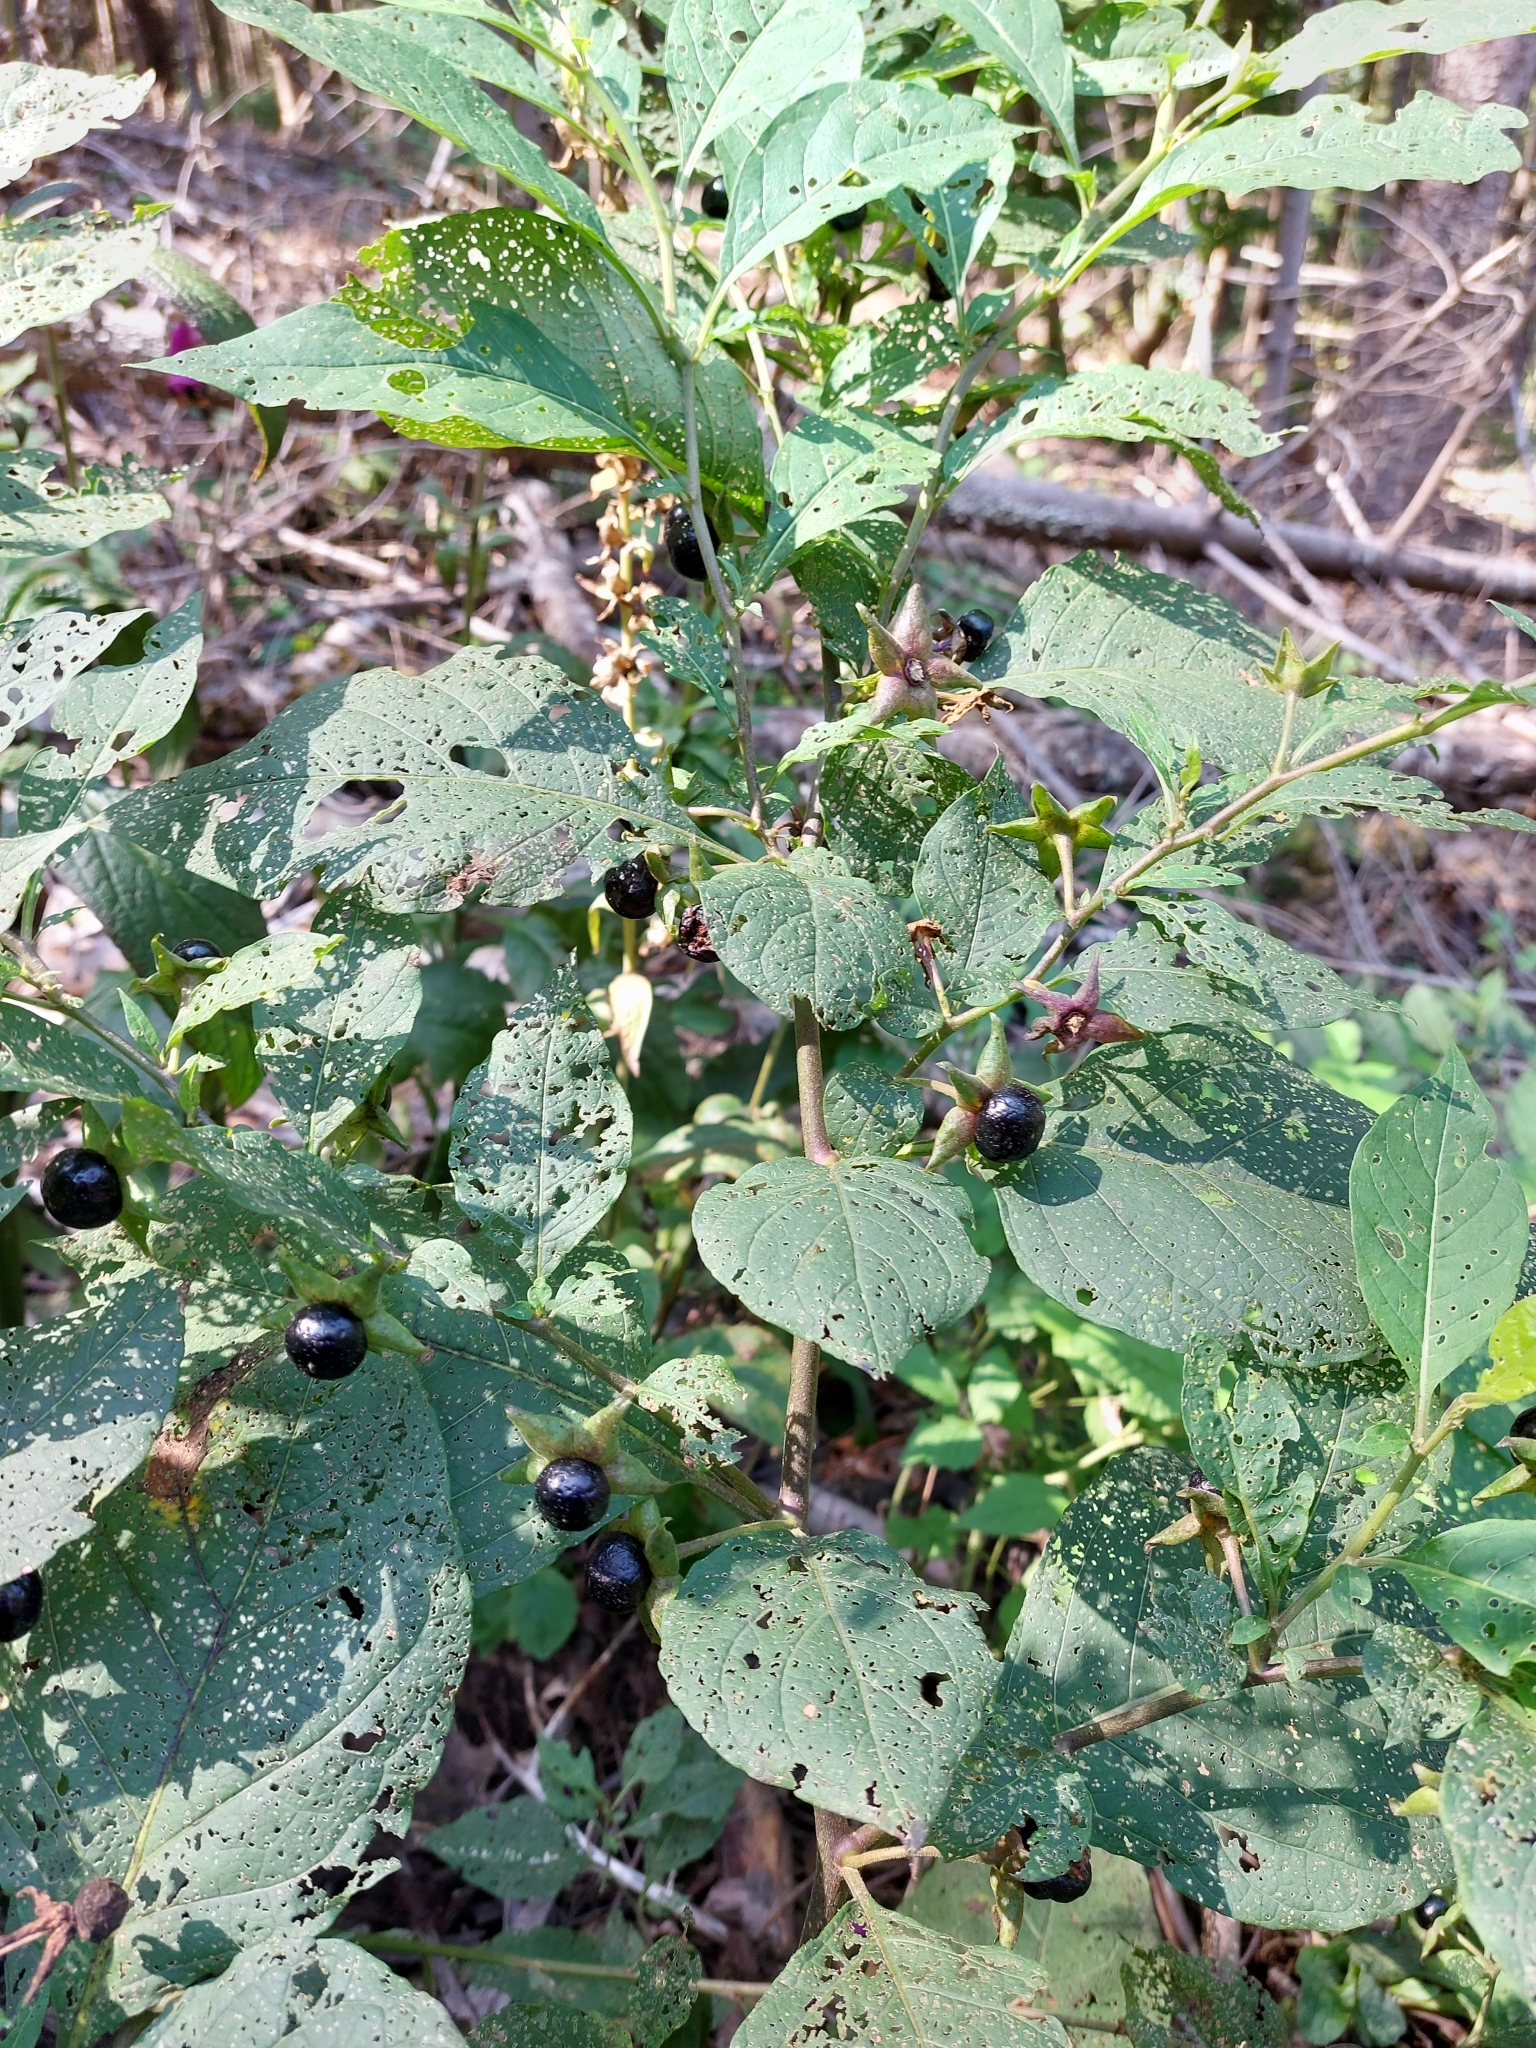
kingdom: Plantae
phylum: Tracheophyta
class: Magnoliopsida
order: Solanales
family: Solanaceae
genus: Atropa
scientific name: Atropa belladonna
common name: Deadly nightshade
